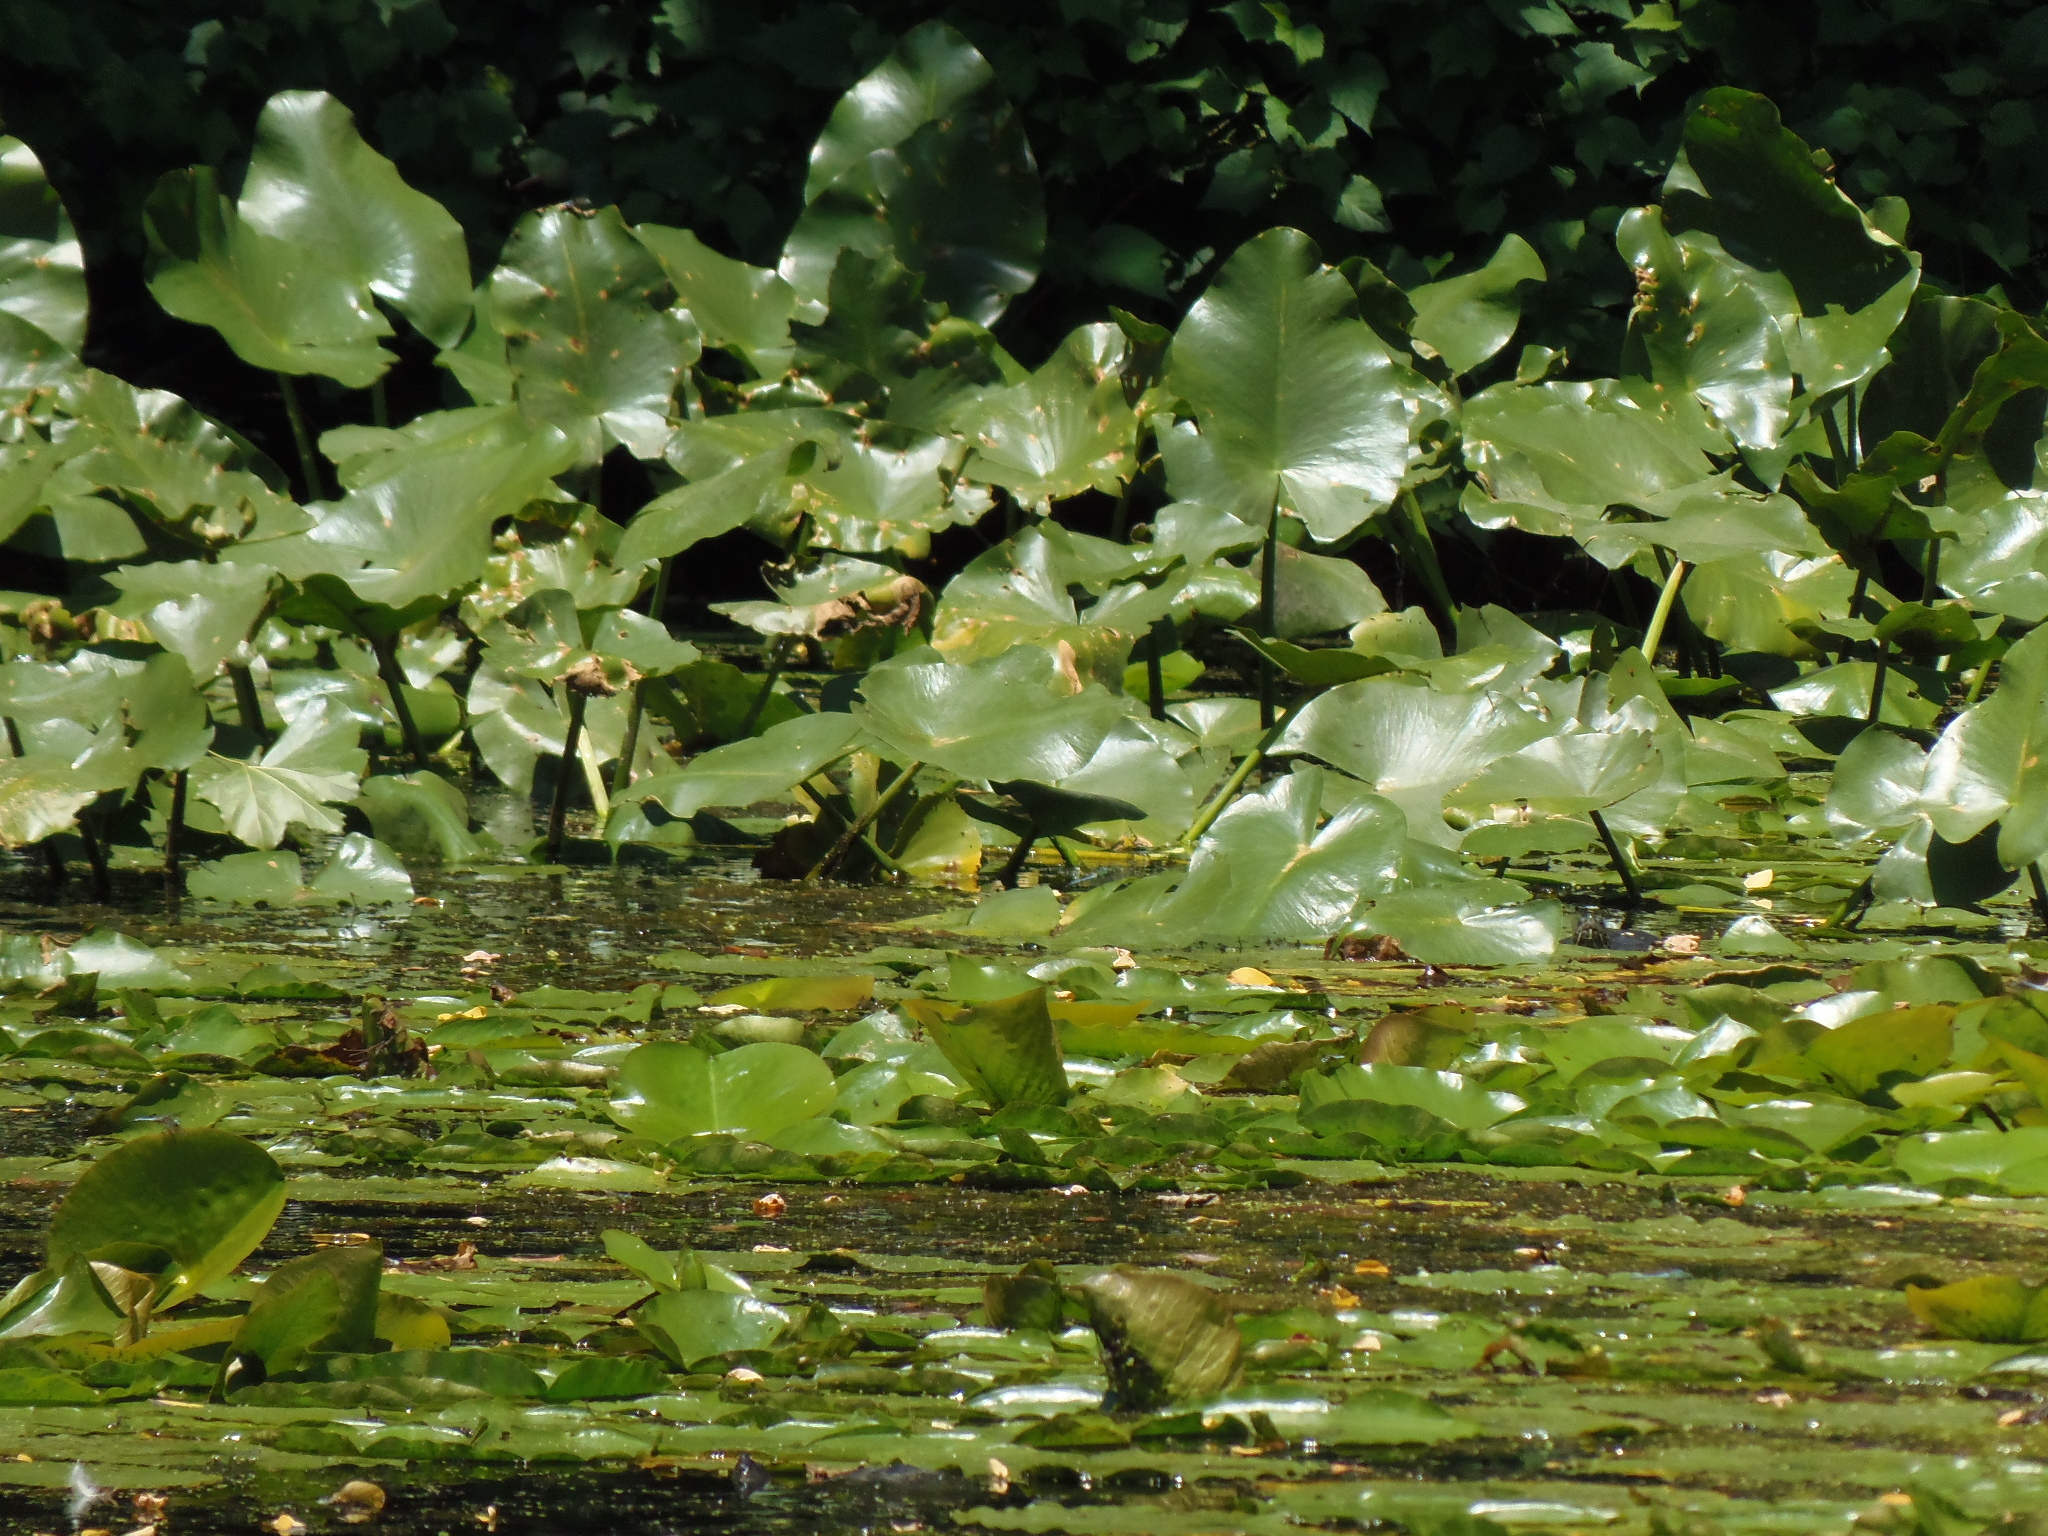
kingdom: Plantae
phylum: Tracheophyta
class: Magnoliopsida
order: Nymphaeales
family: Nymphaeaceae
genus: Nuphar
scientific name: Nuphar advena
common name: Spatter-dock
